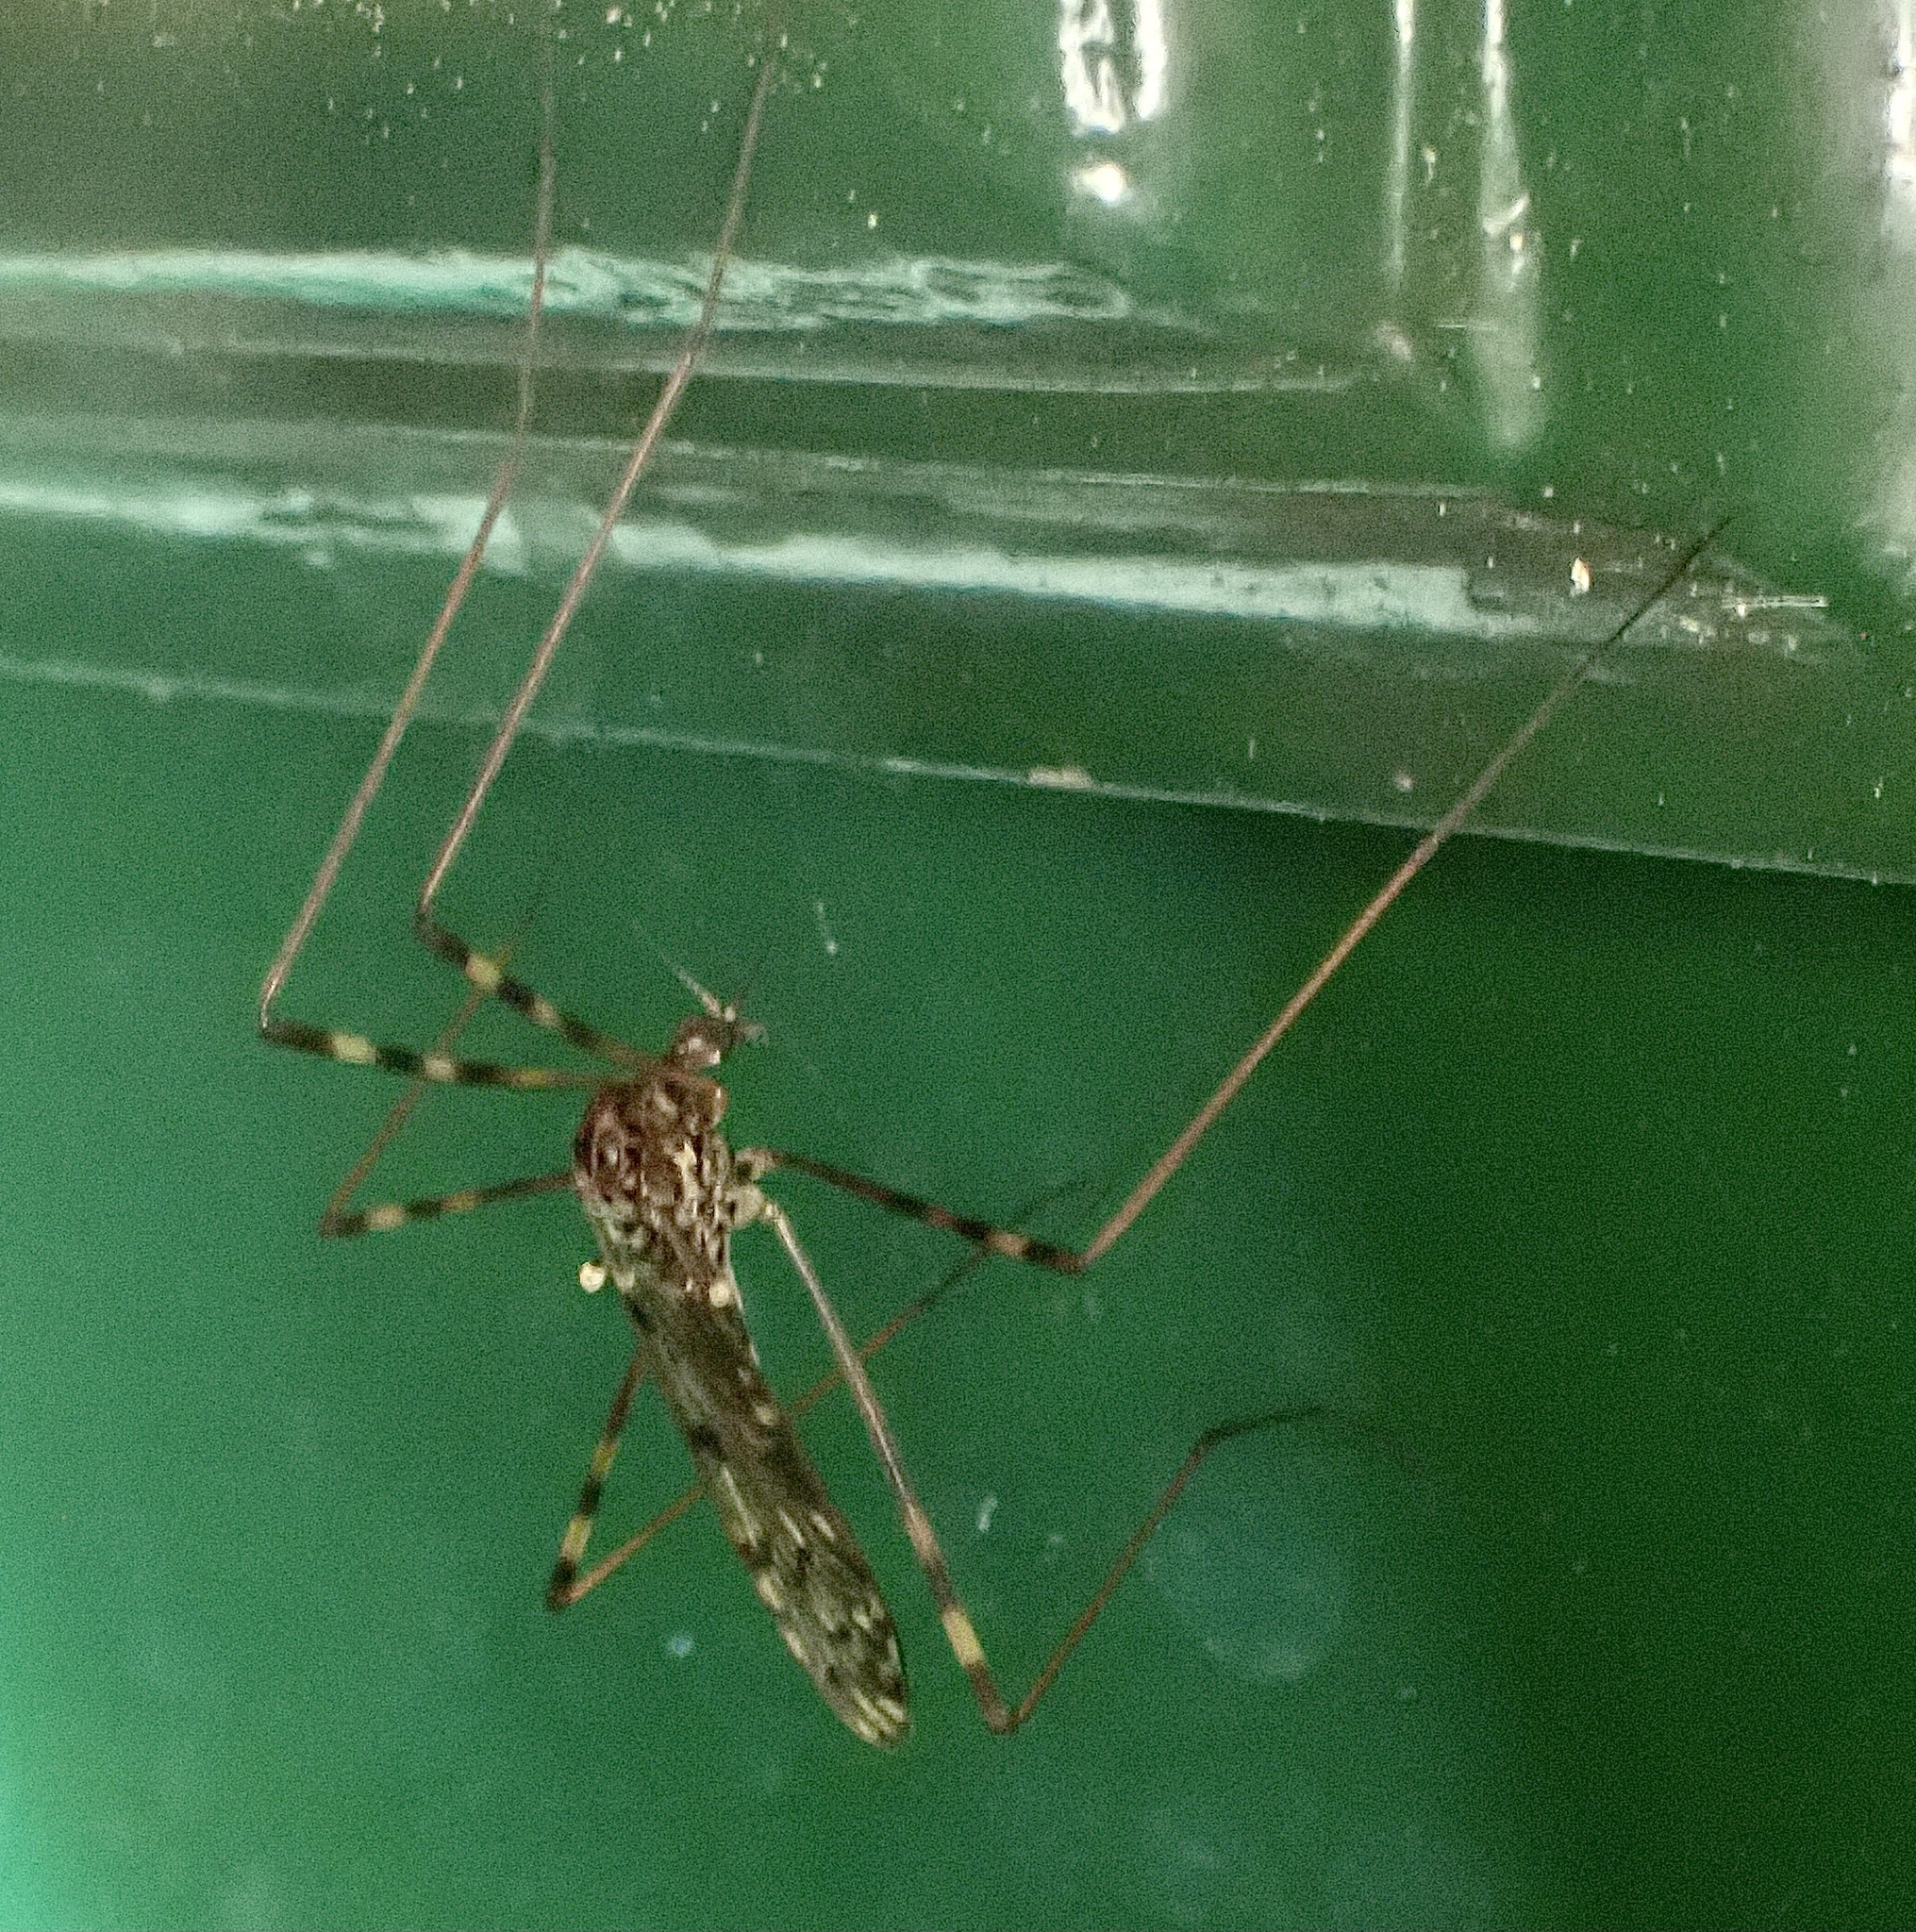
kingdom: Animalia
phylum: Arthropoda
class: Insecta
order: Diptera
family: Limoniidae
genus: Metalimnobia
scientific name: Metalimnobia immatura
